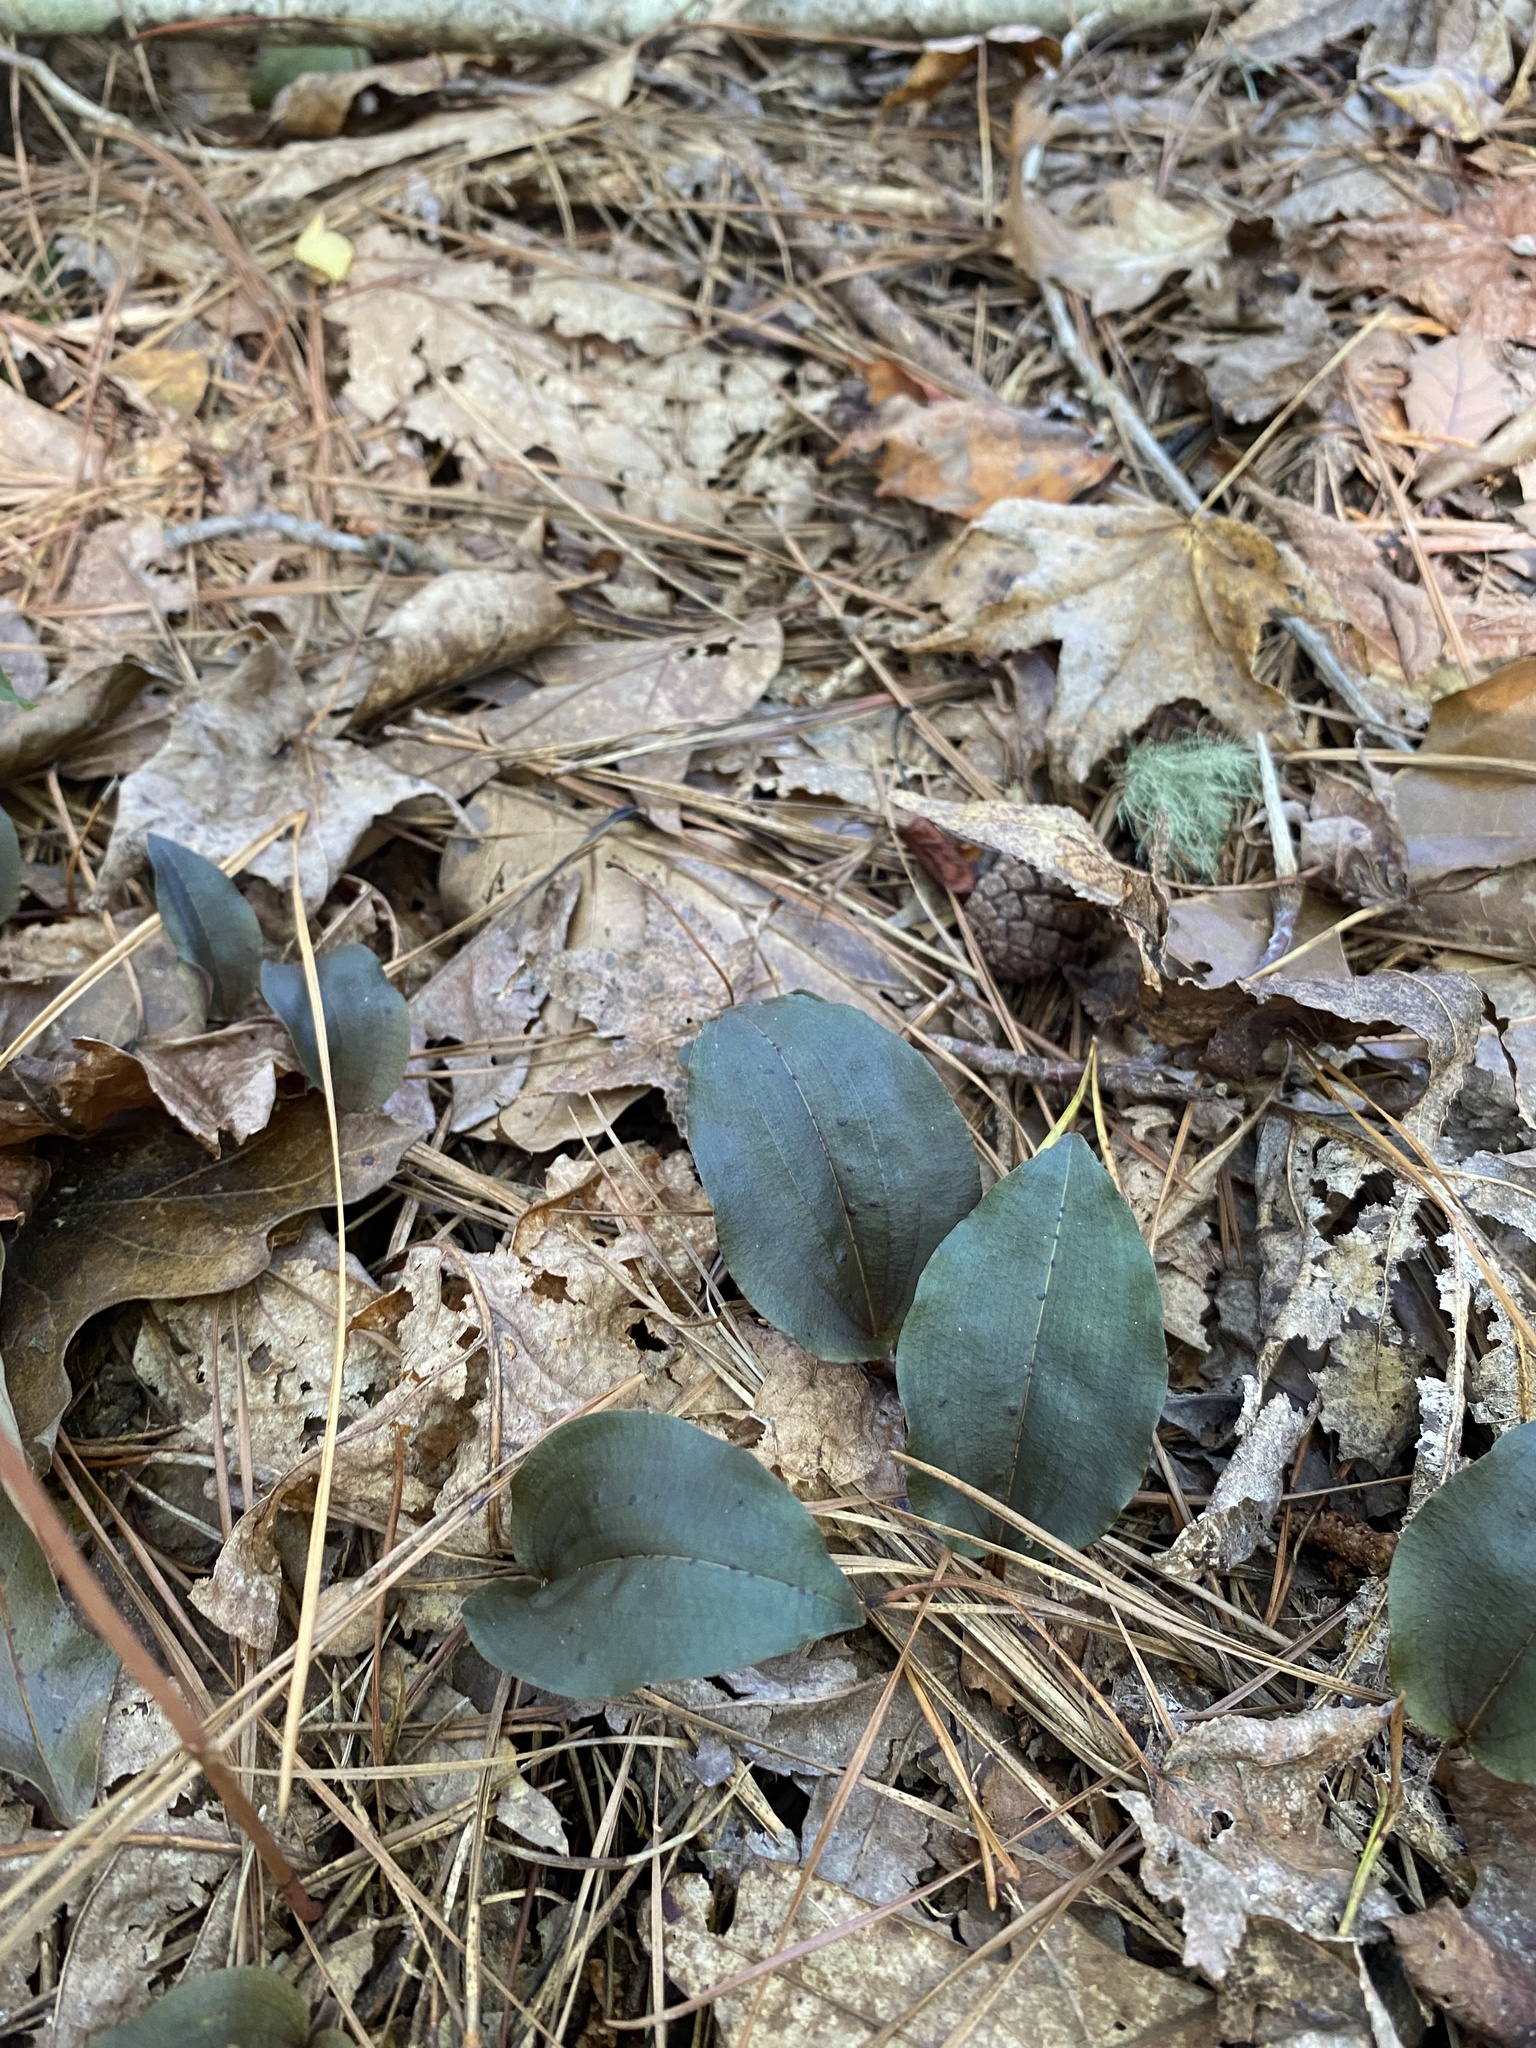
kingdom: Plantae
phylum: Tracheophyta
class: Liliopsida
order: Asparagales
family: Orchidaceae
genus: Tipularia
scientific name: Tipularia discolor
